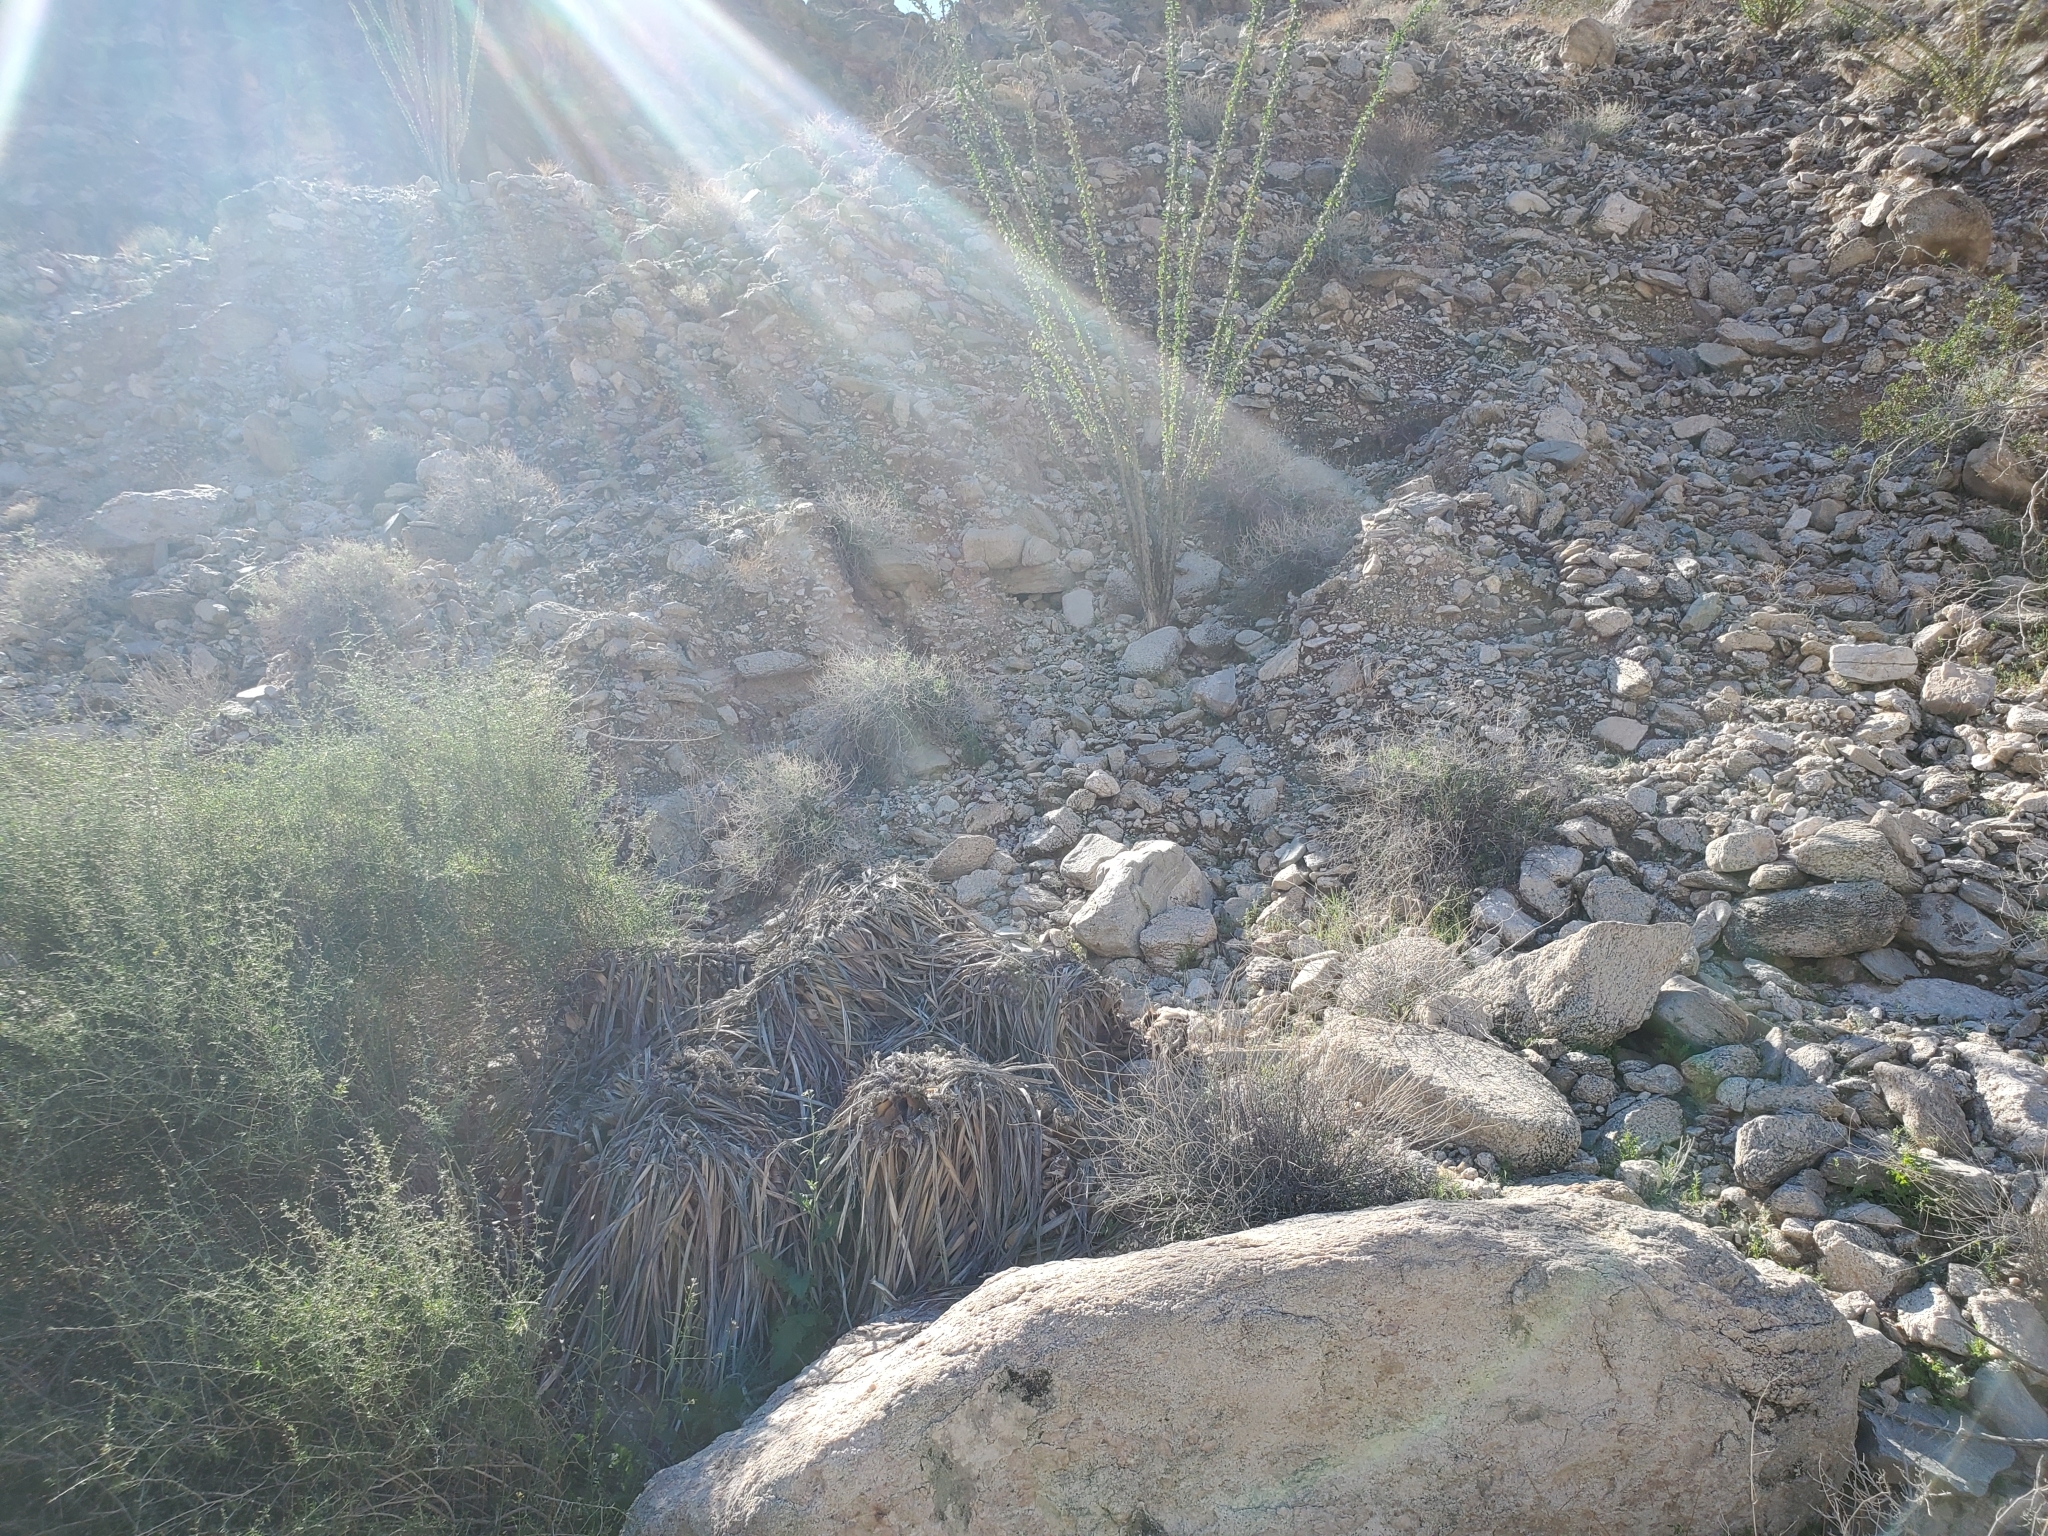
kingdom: Plantae
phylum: Tracheophyta
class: Liliopsida
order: Asparagales
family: Asparagaceae
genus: Nolina
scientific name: Nolina bigelovii
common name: Bigelow bear-grass
